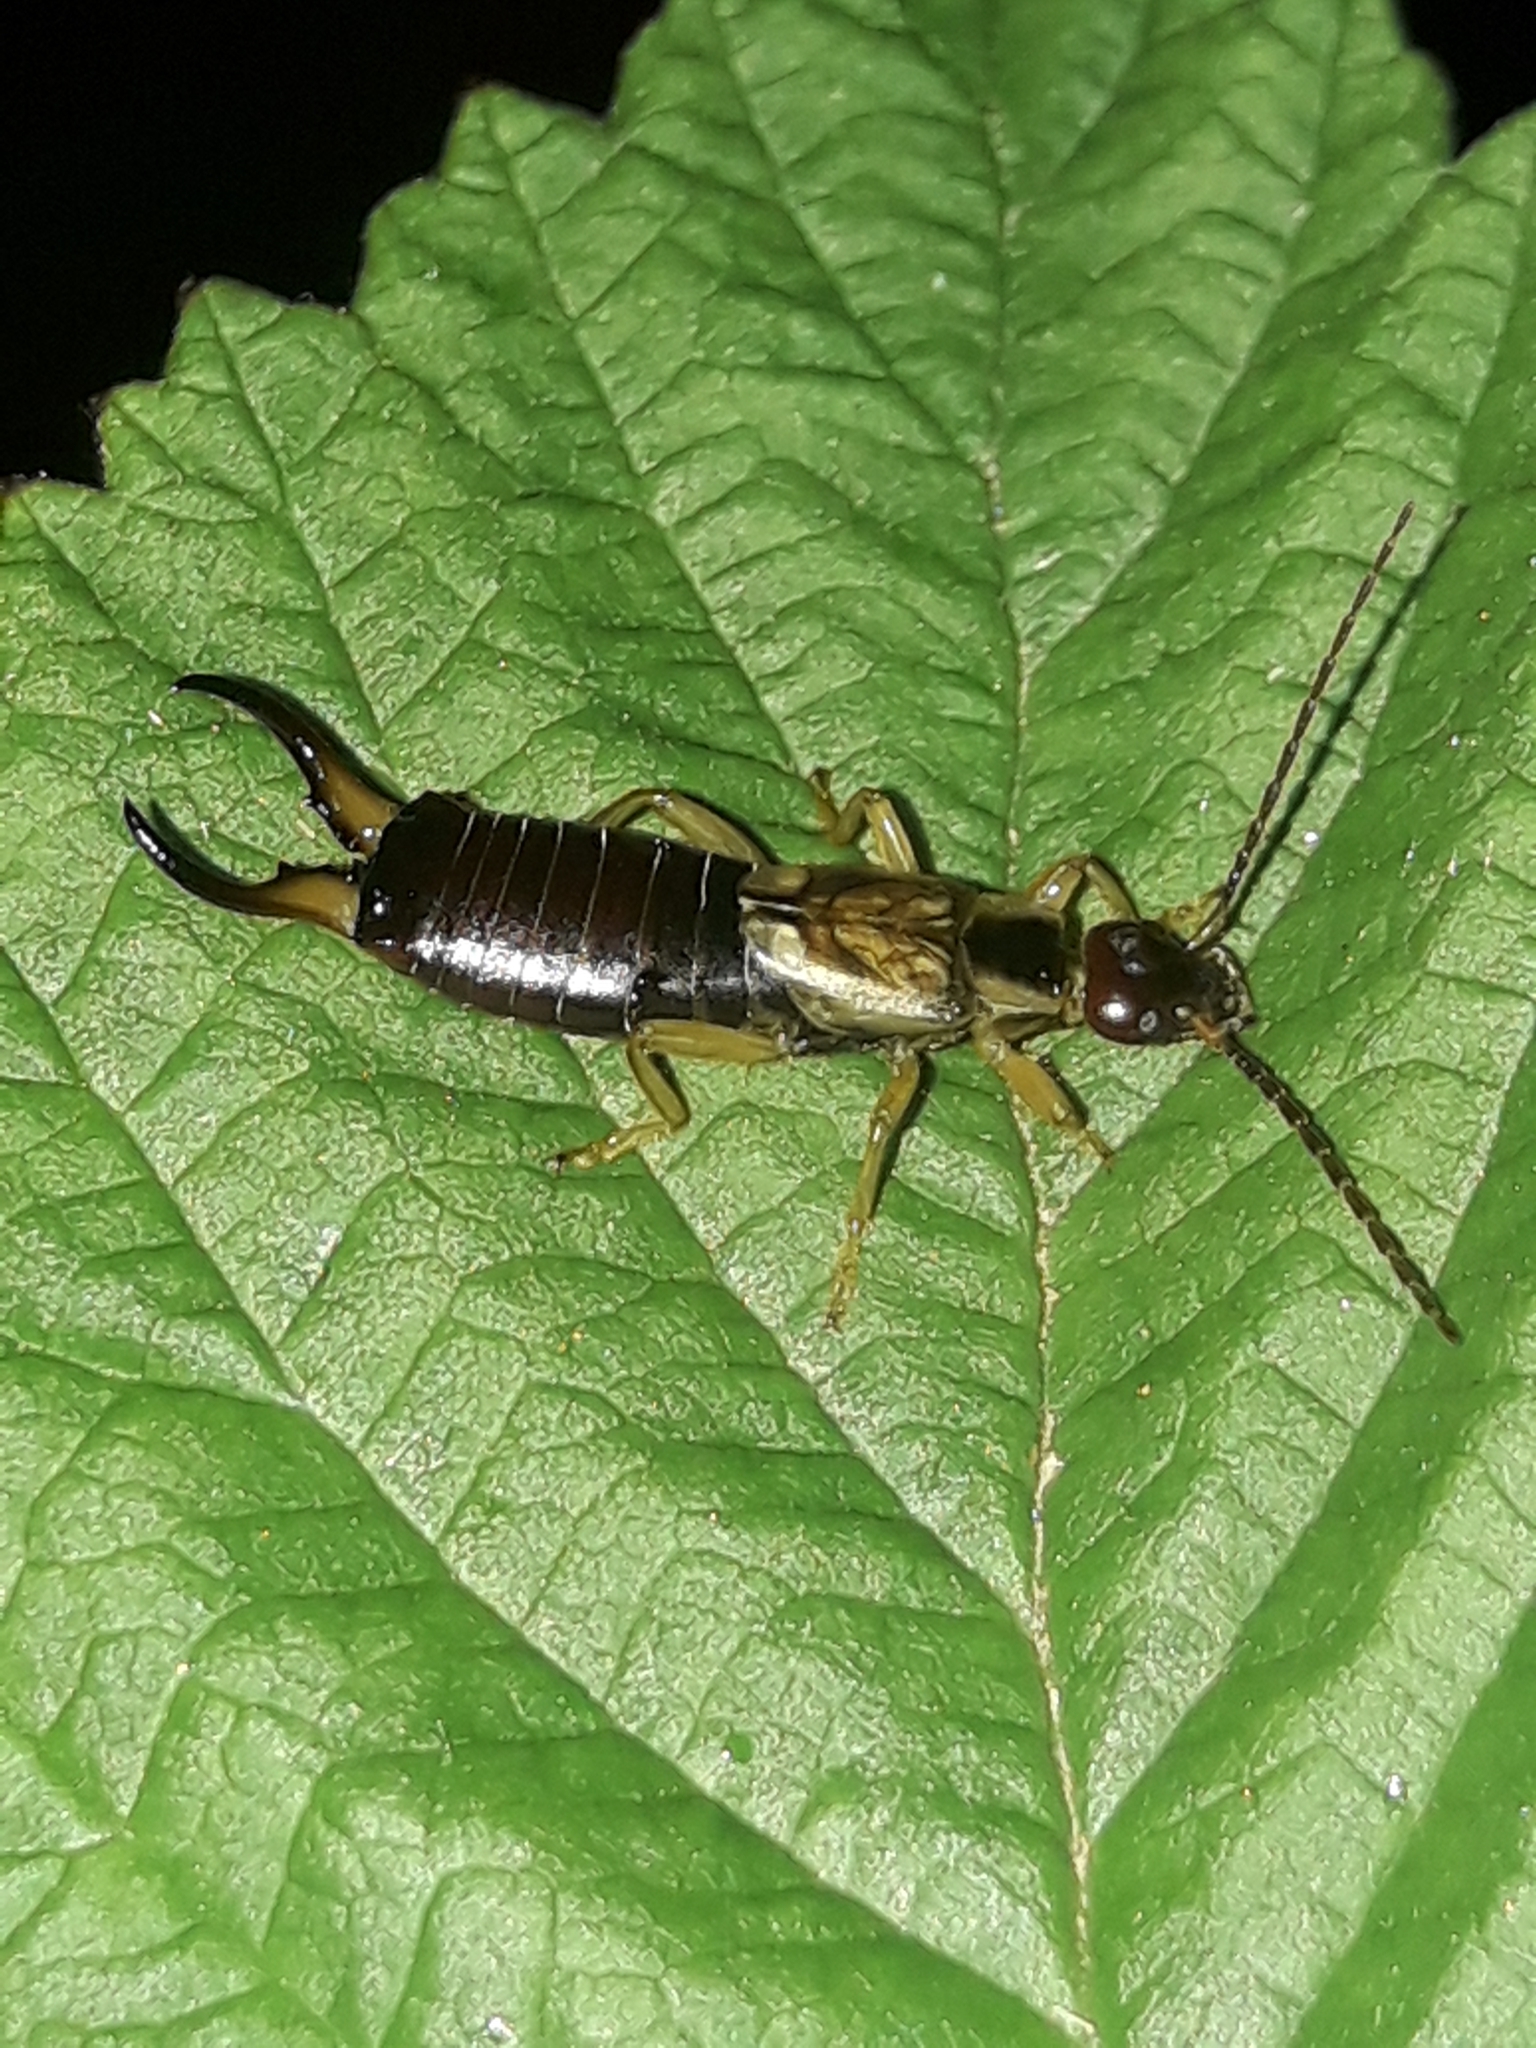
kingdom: Animalia
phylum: Arthropoda
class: Insecta
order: Dermaptera
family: Forficulidae
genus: Forficula
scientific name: Forficula
